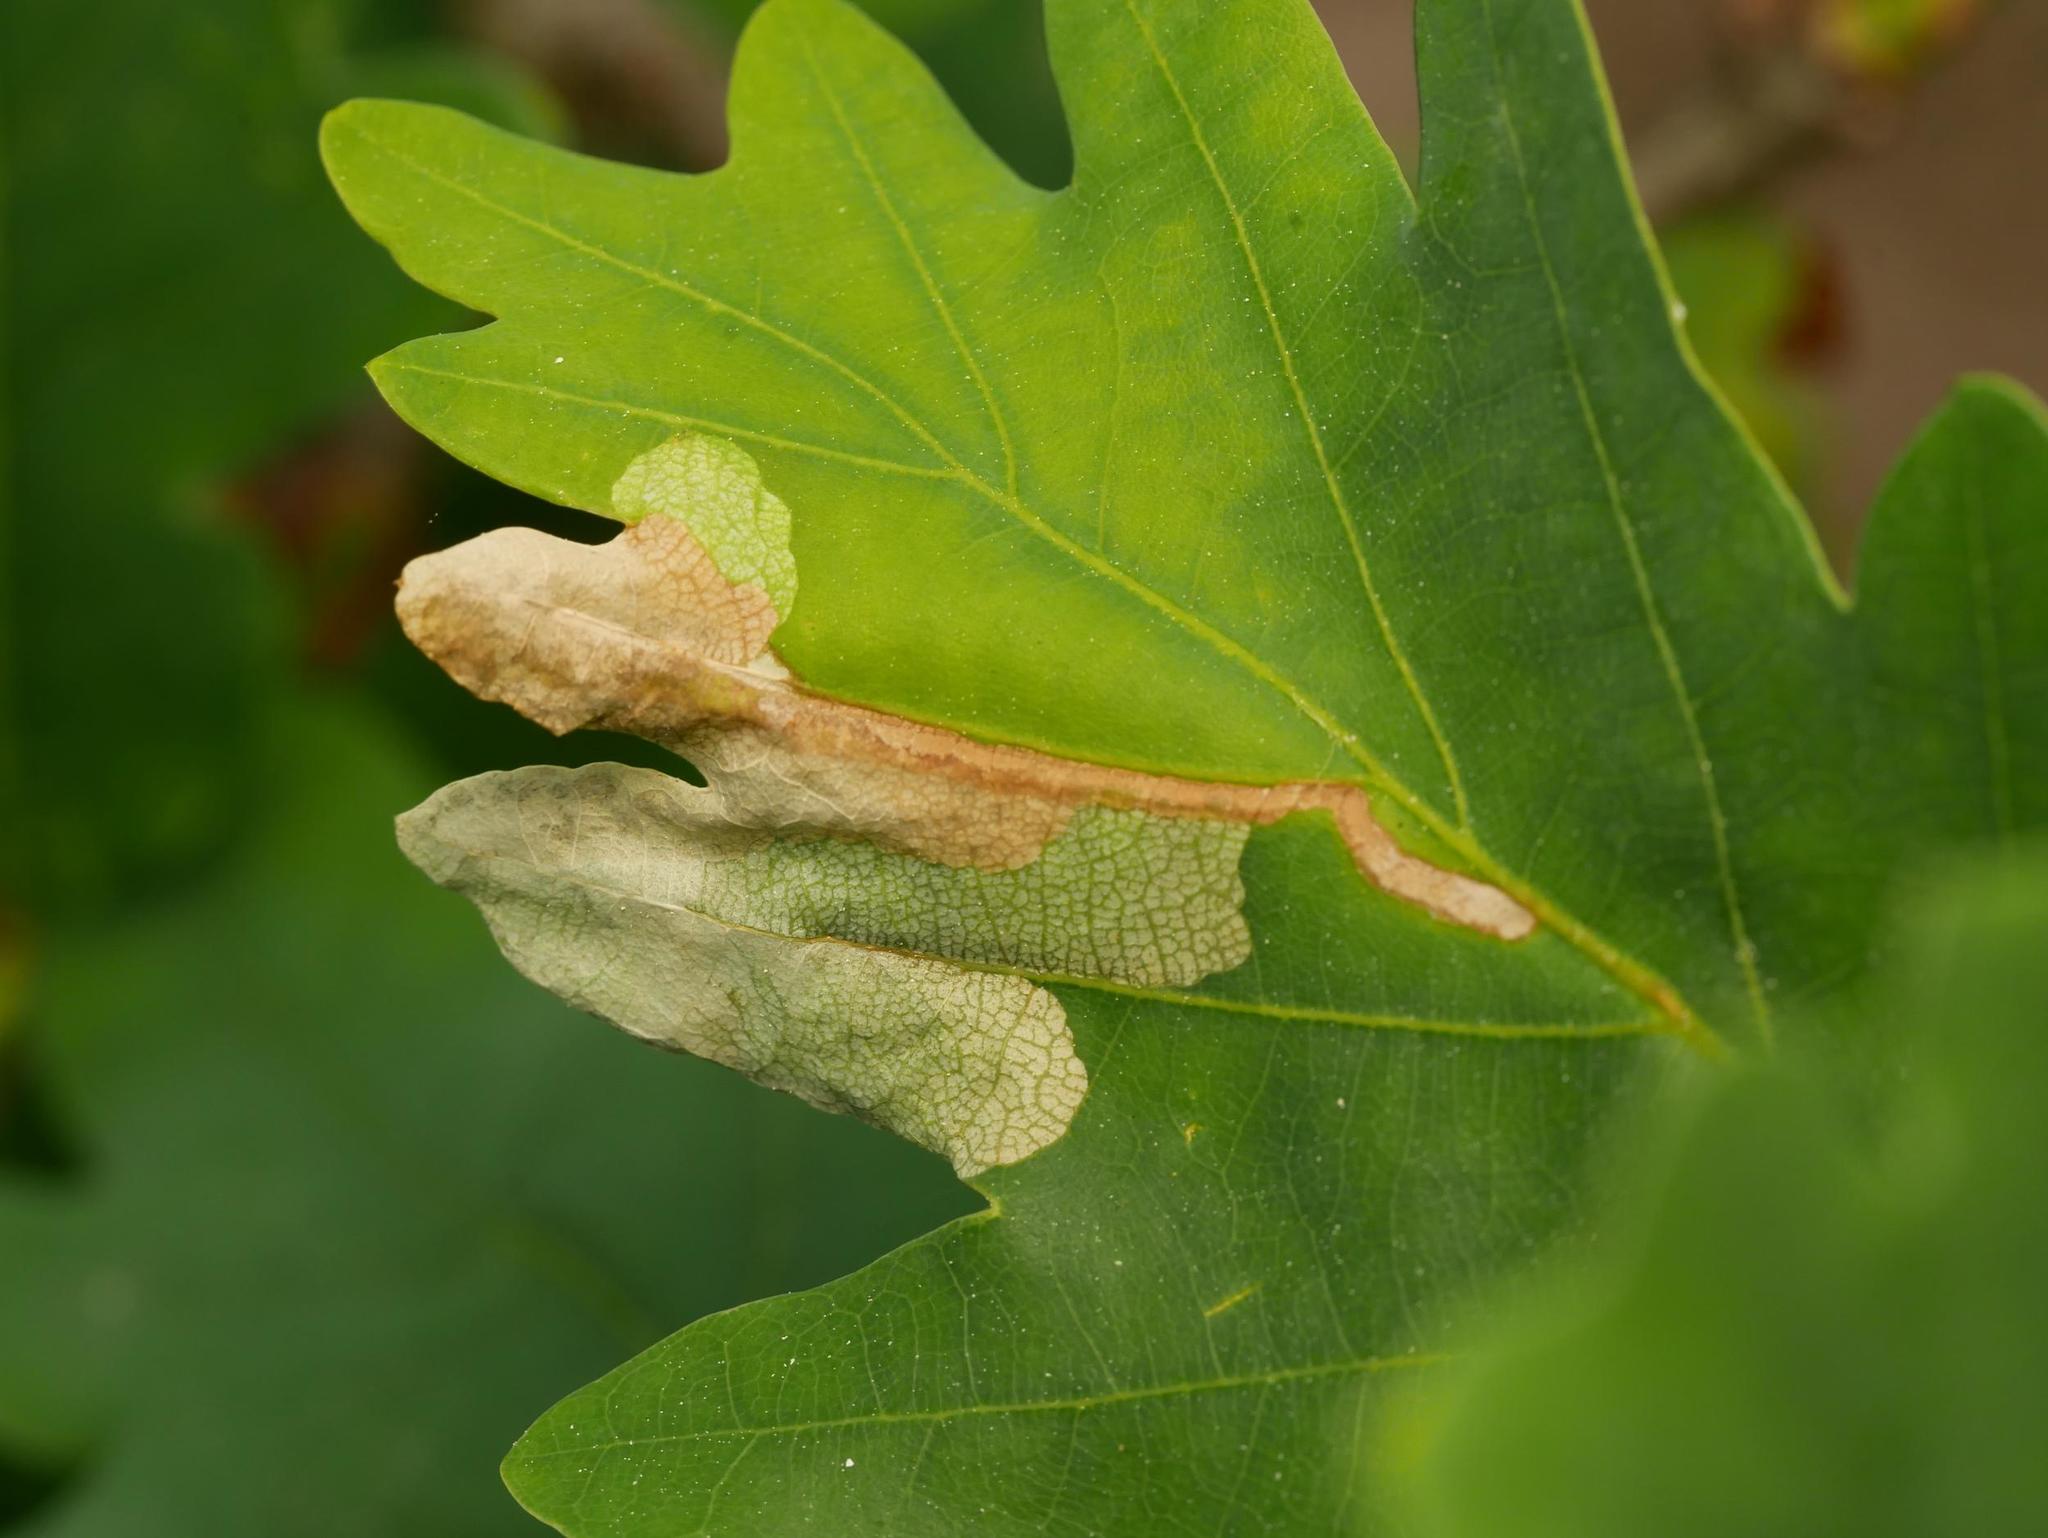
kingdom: Animalia
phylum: Arthropoda
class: Insecta
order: Coleoptera
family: Curculionidae
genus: Orchestes
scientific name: Orchestes quercus
